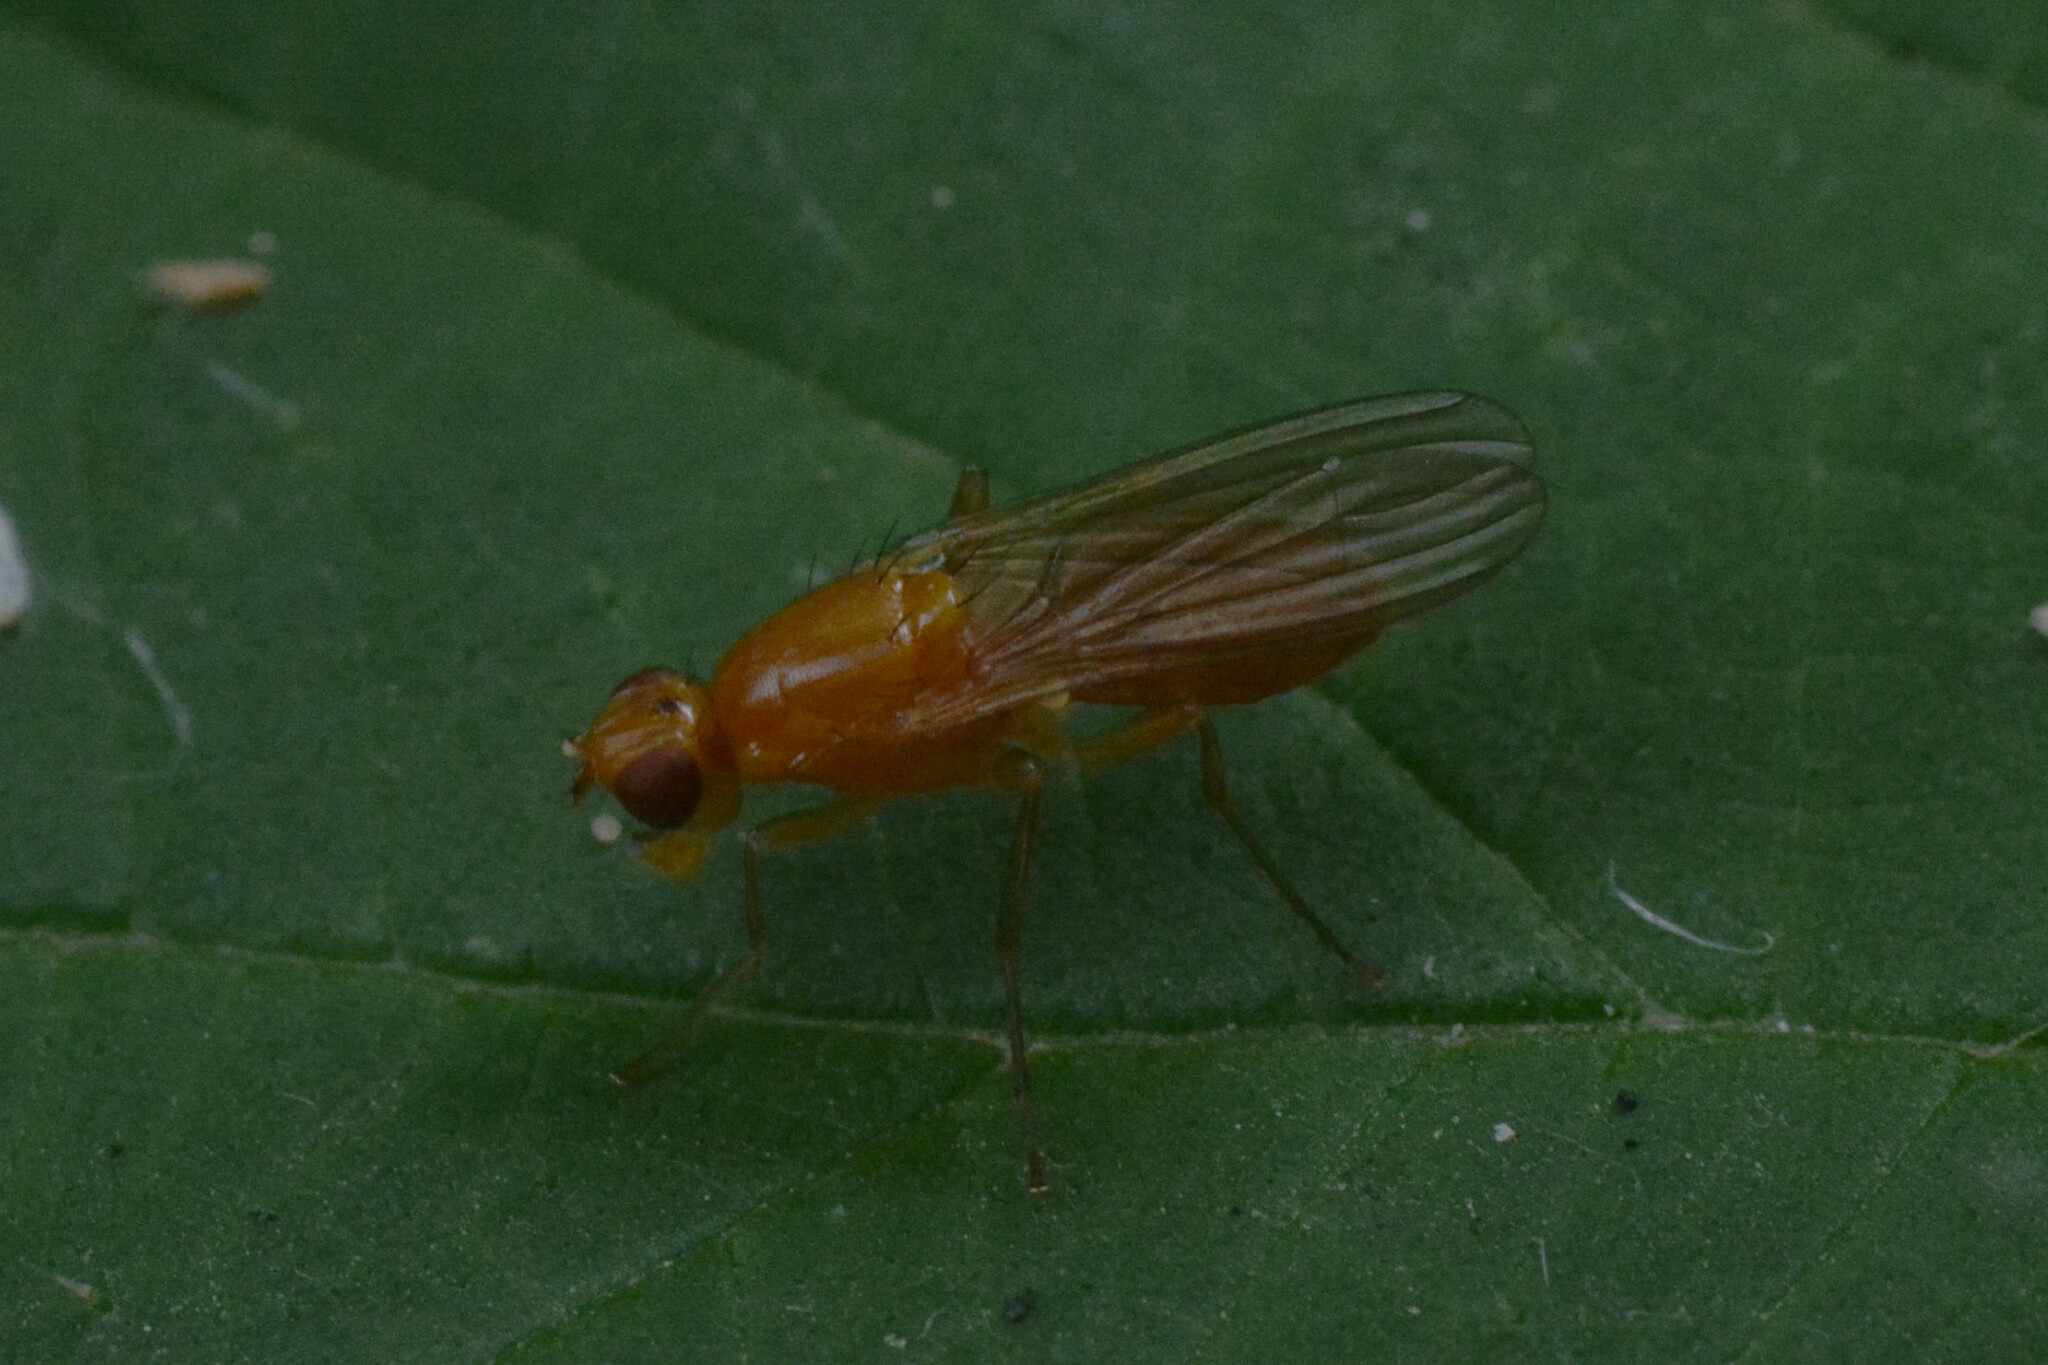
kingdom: Animalia
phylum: Arthropoda
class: Insecta
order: Diptera
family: Psilidae
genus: Psila
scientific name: Psila fimetaria
